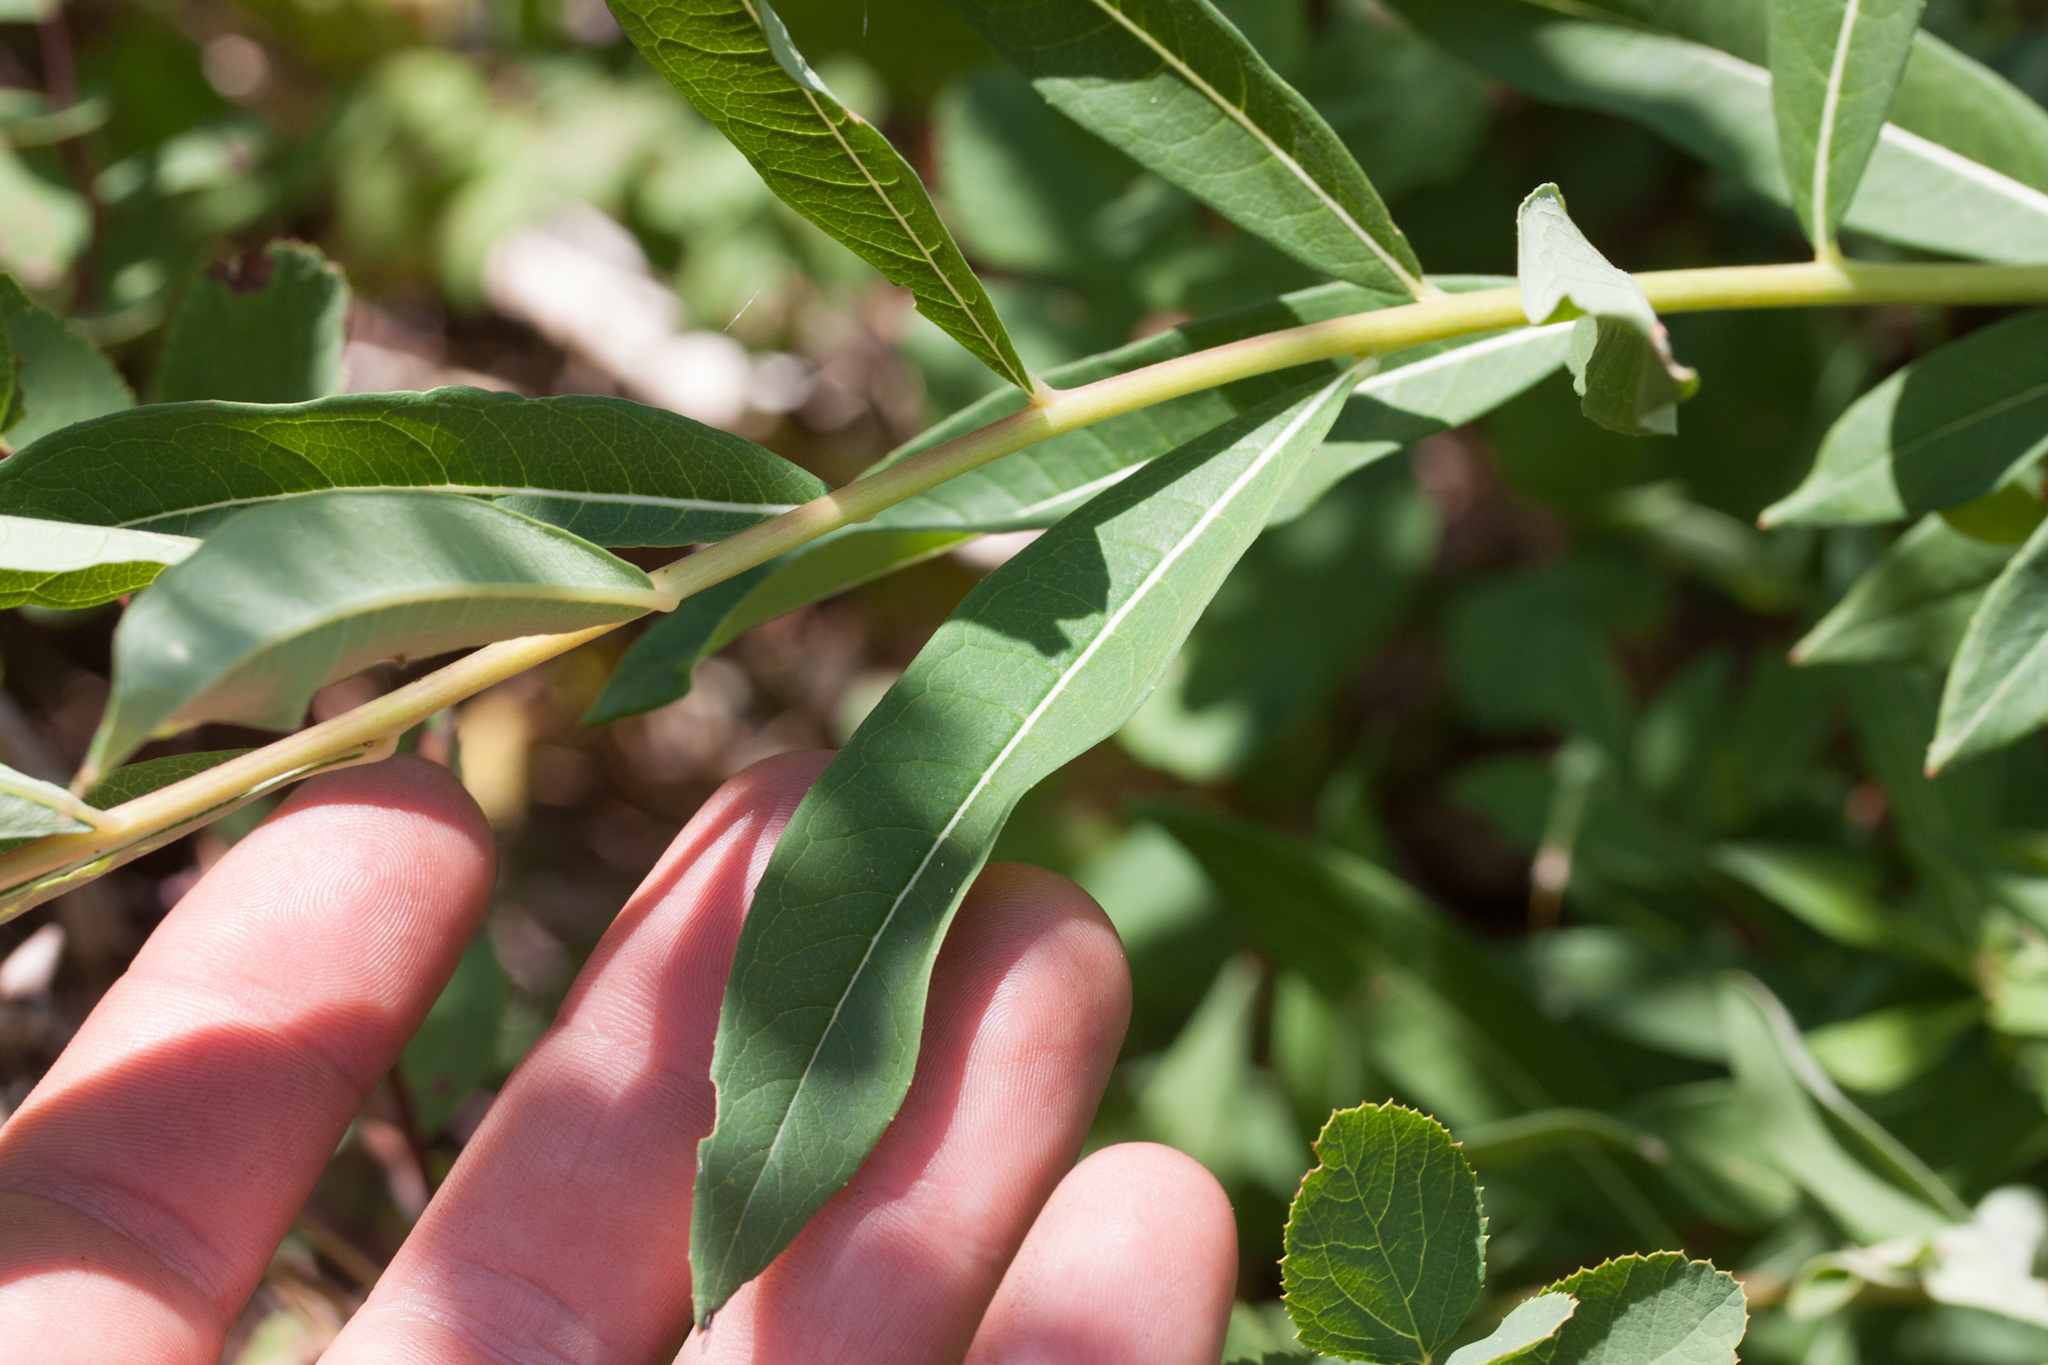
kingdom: Plantae
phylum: Tracheophyta
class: Magnoliopsida
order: Myrtales
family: Onagraceae
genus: Chamaenerion
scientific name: Chamaenerion angustifolium
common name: Fireweed
